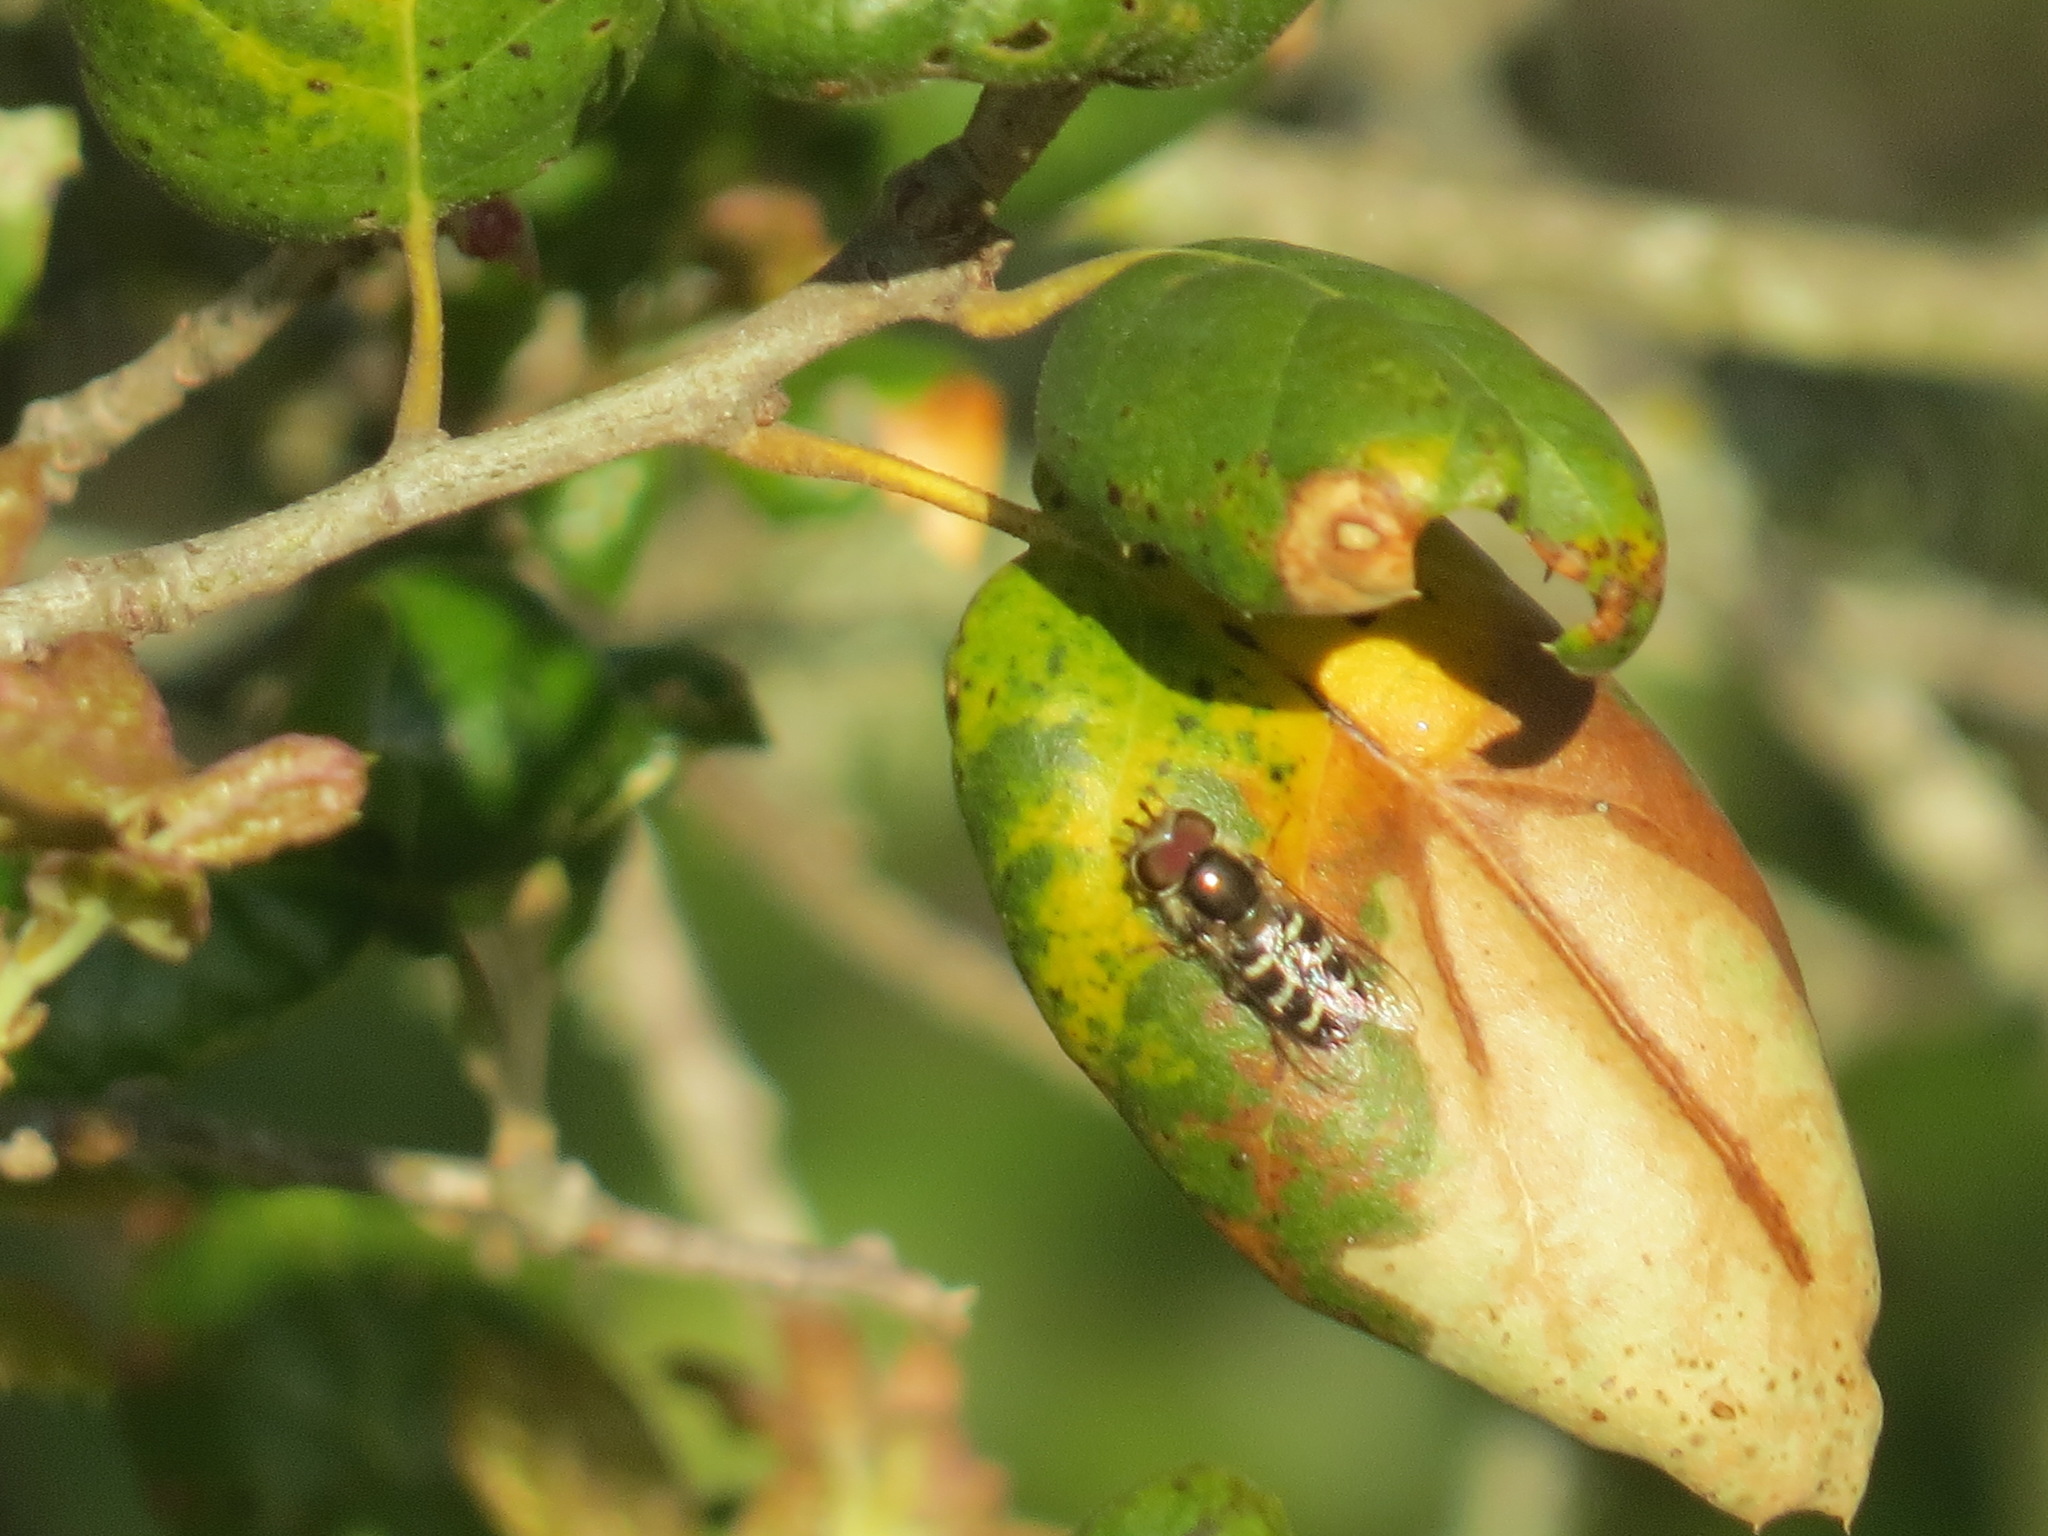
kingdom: Animalia
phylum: Arthropoda
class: Insecta
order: Diptera
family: Syrphidae
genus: Scaeva
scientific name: Scaeva affinis
